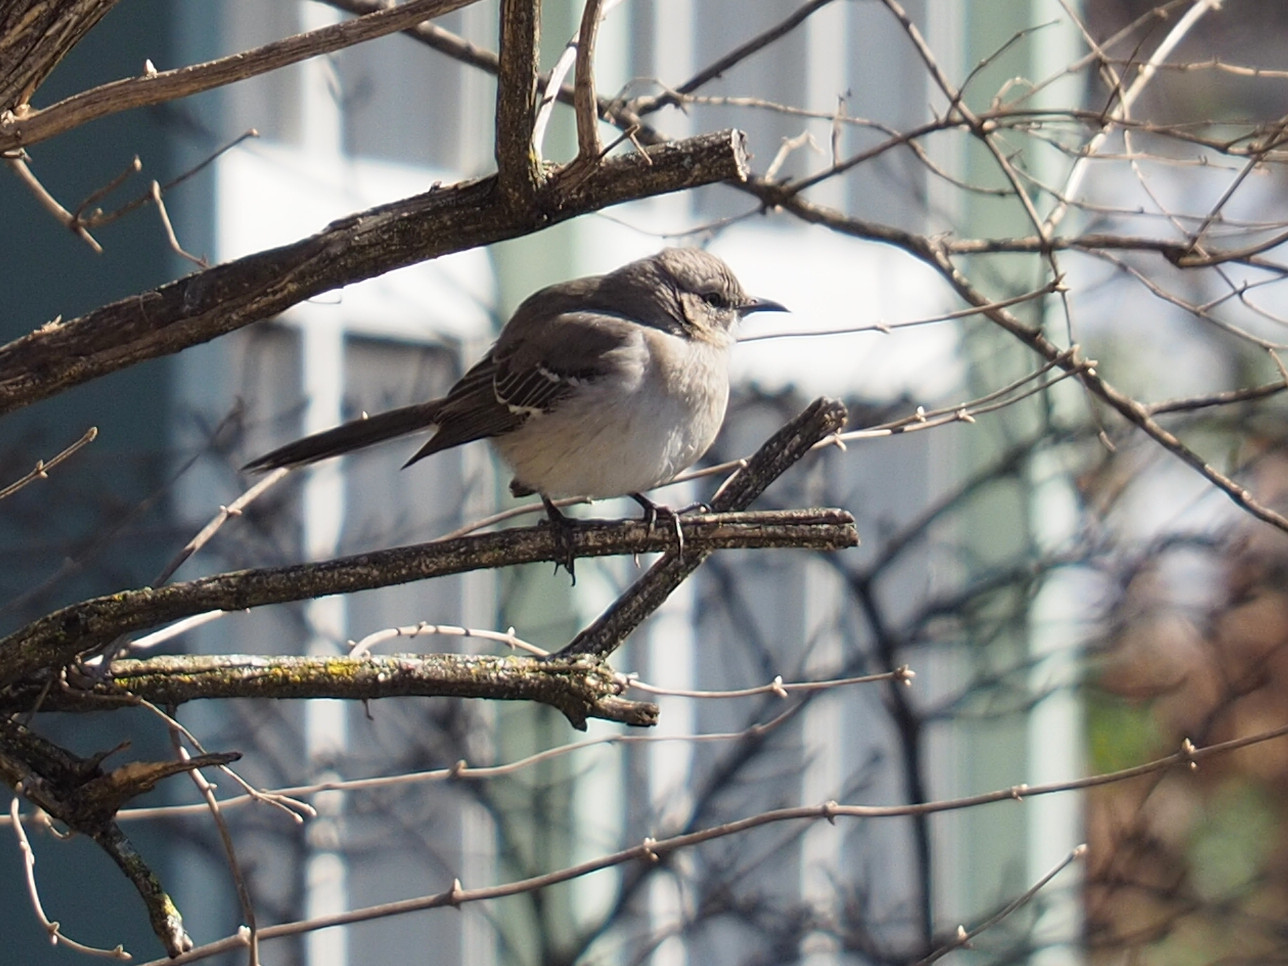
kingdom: Animalia
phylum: Chordata
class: Aves
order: Passeriformes
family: Mimidae
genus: Mimus
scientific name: Mimus polyglottos
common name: Northern mockingbird
